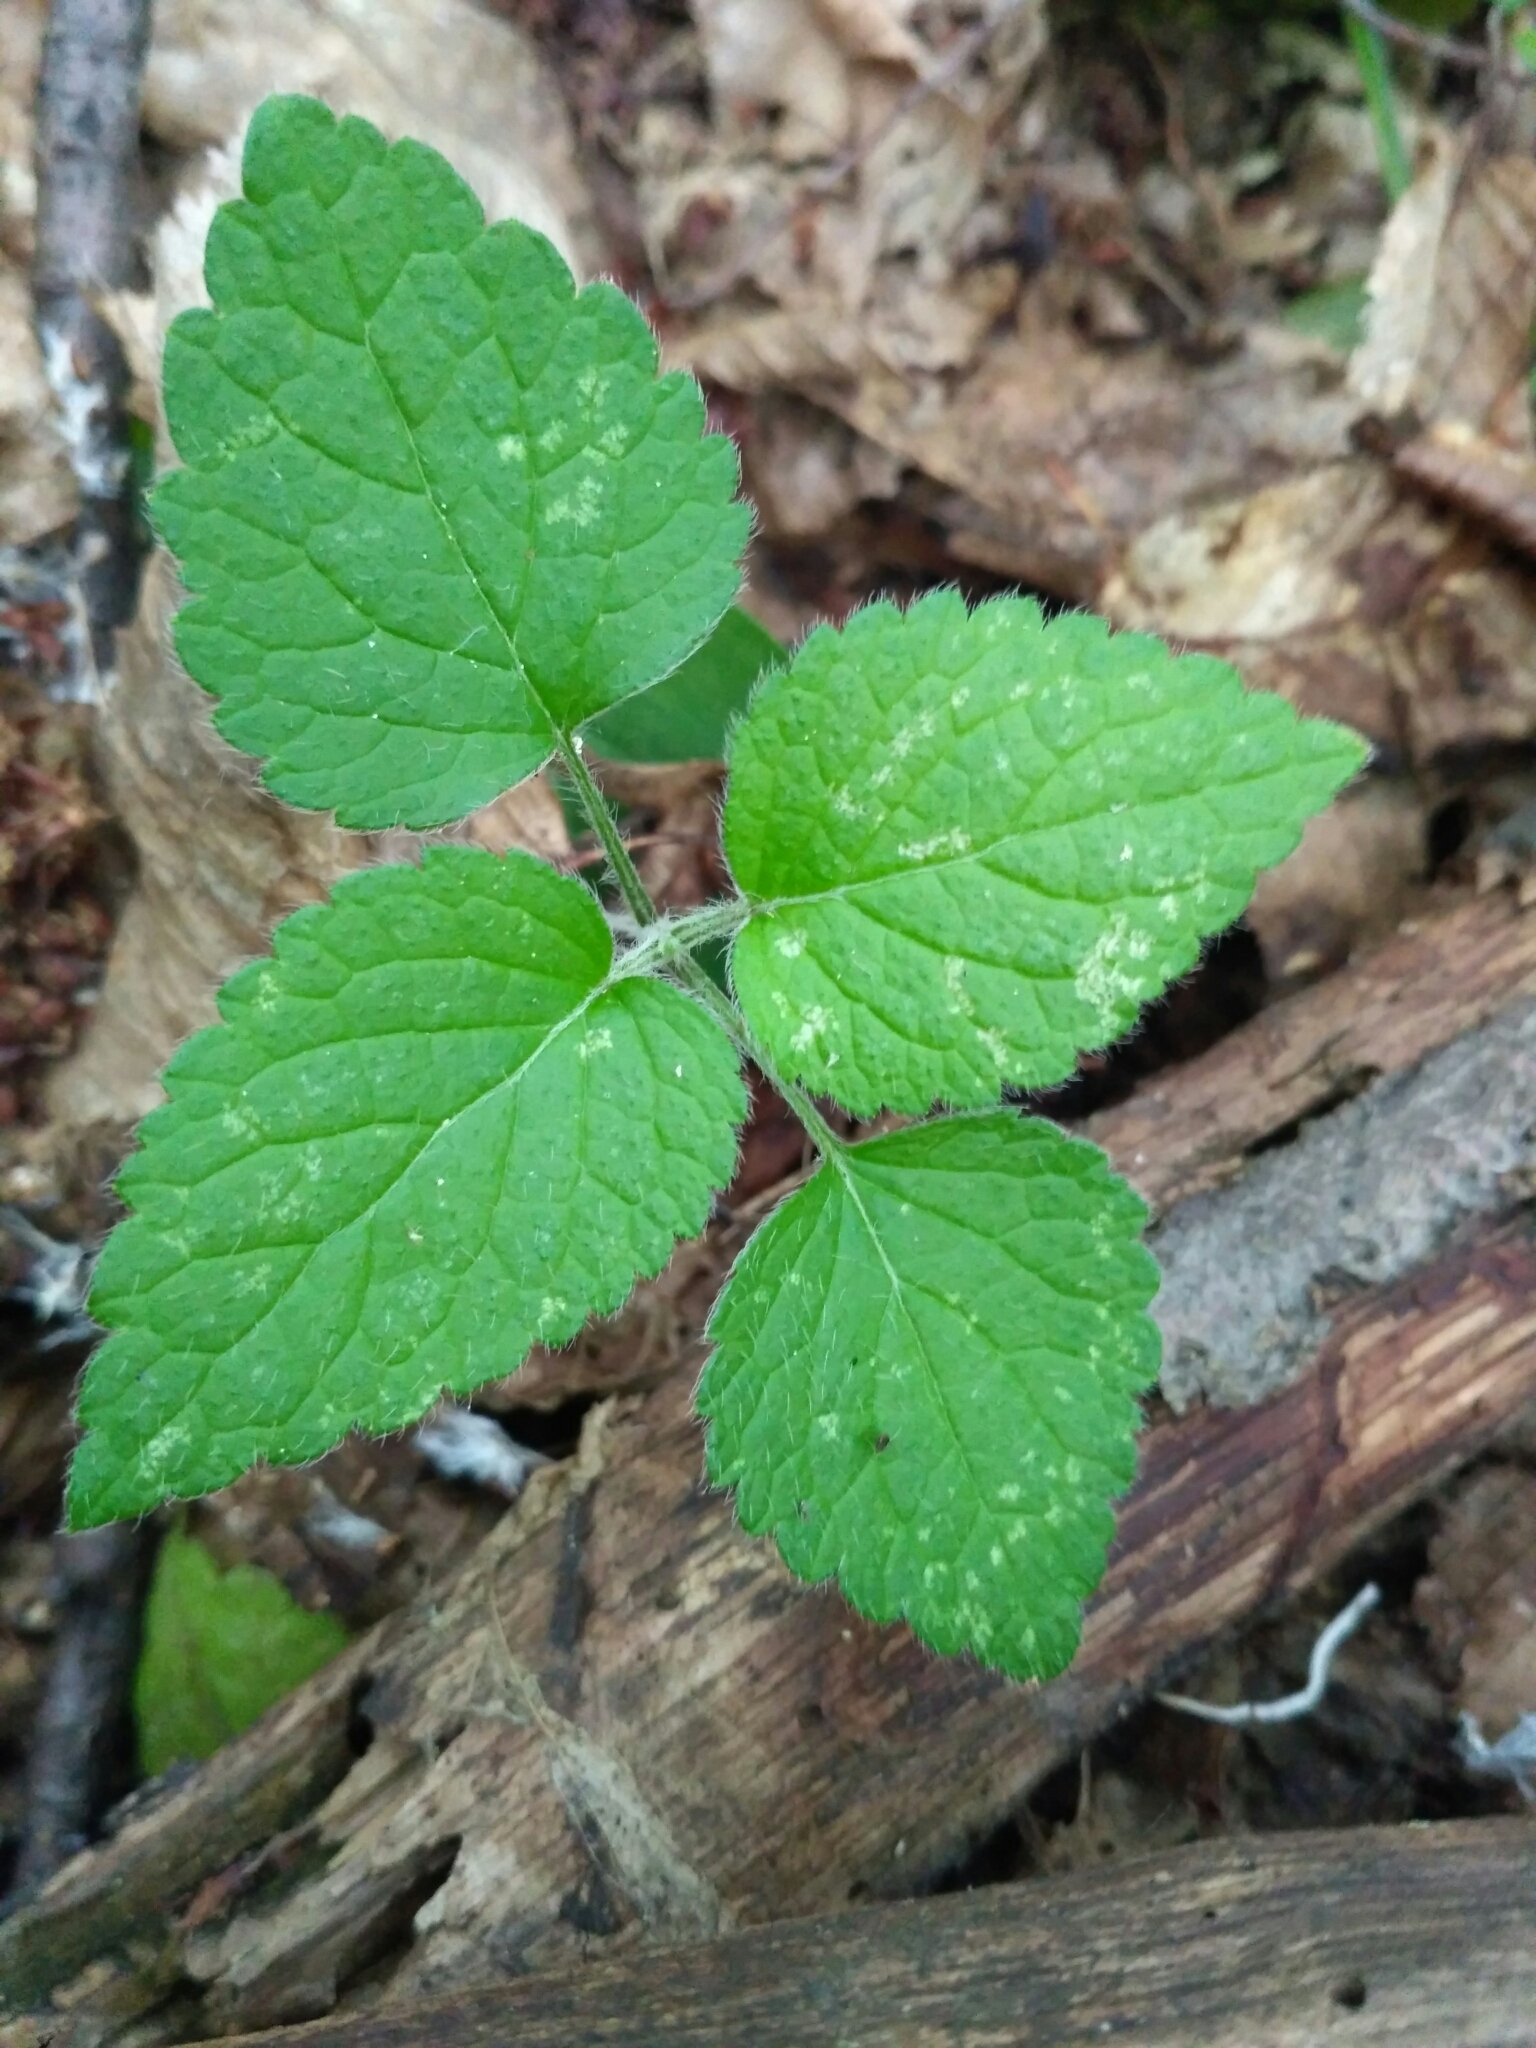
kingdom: Plantae
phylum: Tracheophyta
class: Magnoliopsida
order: Lamiales
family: Lamiaceae
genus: Lamium
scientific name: Lamium galeobdolon
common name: Yellow archangel
